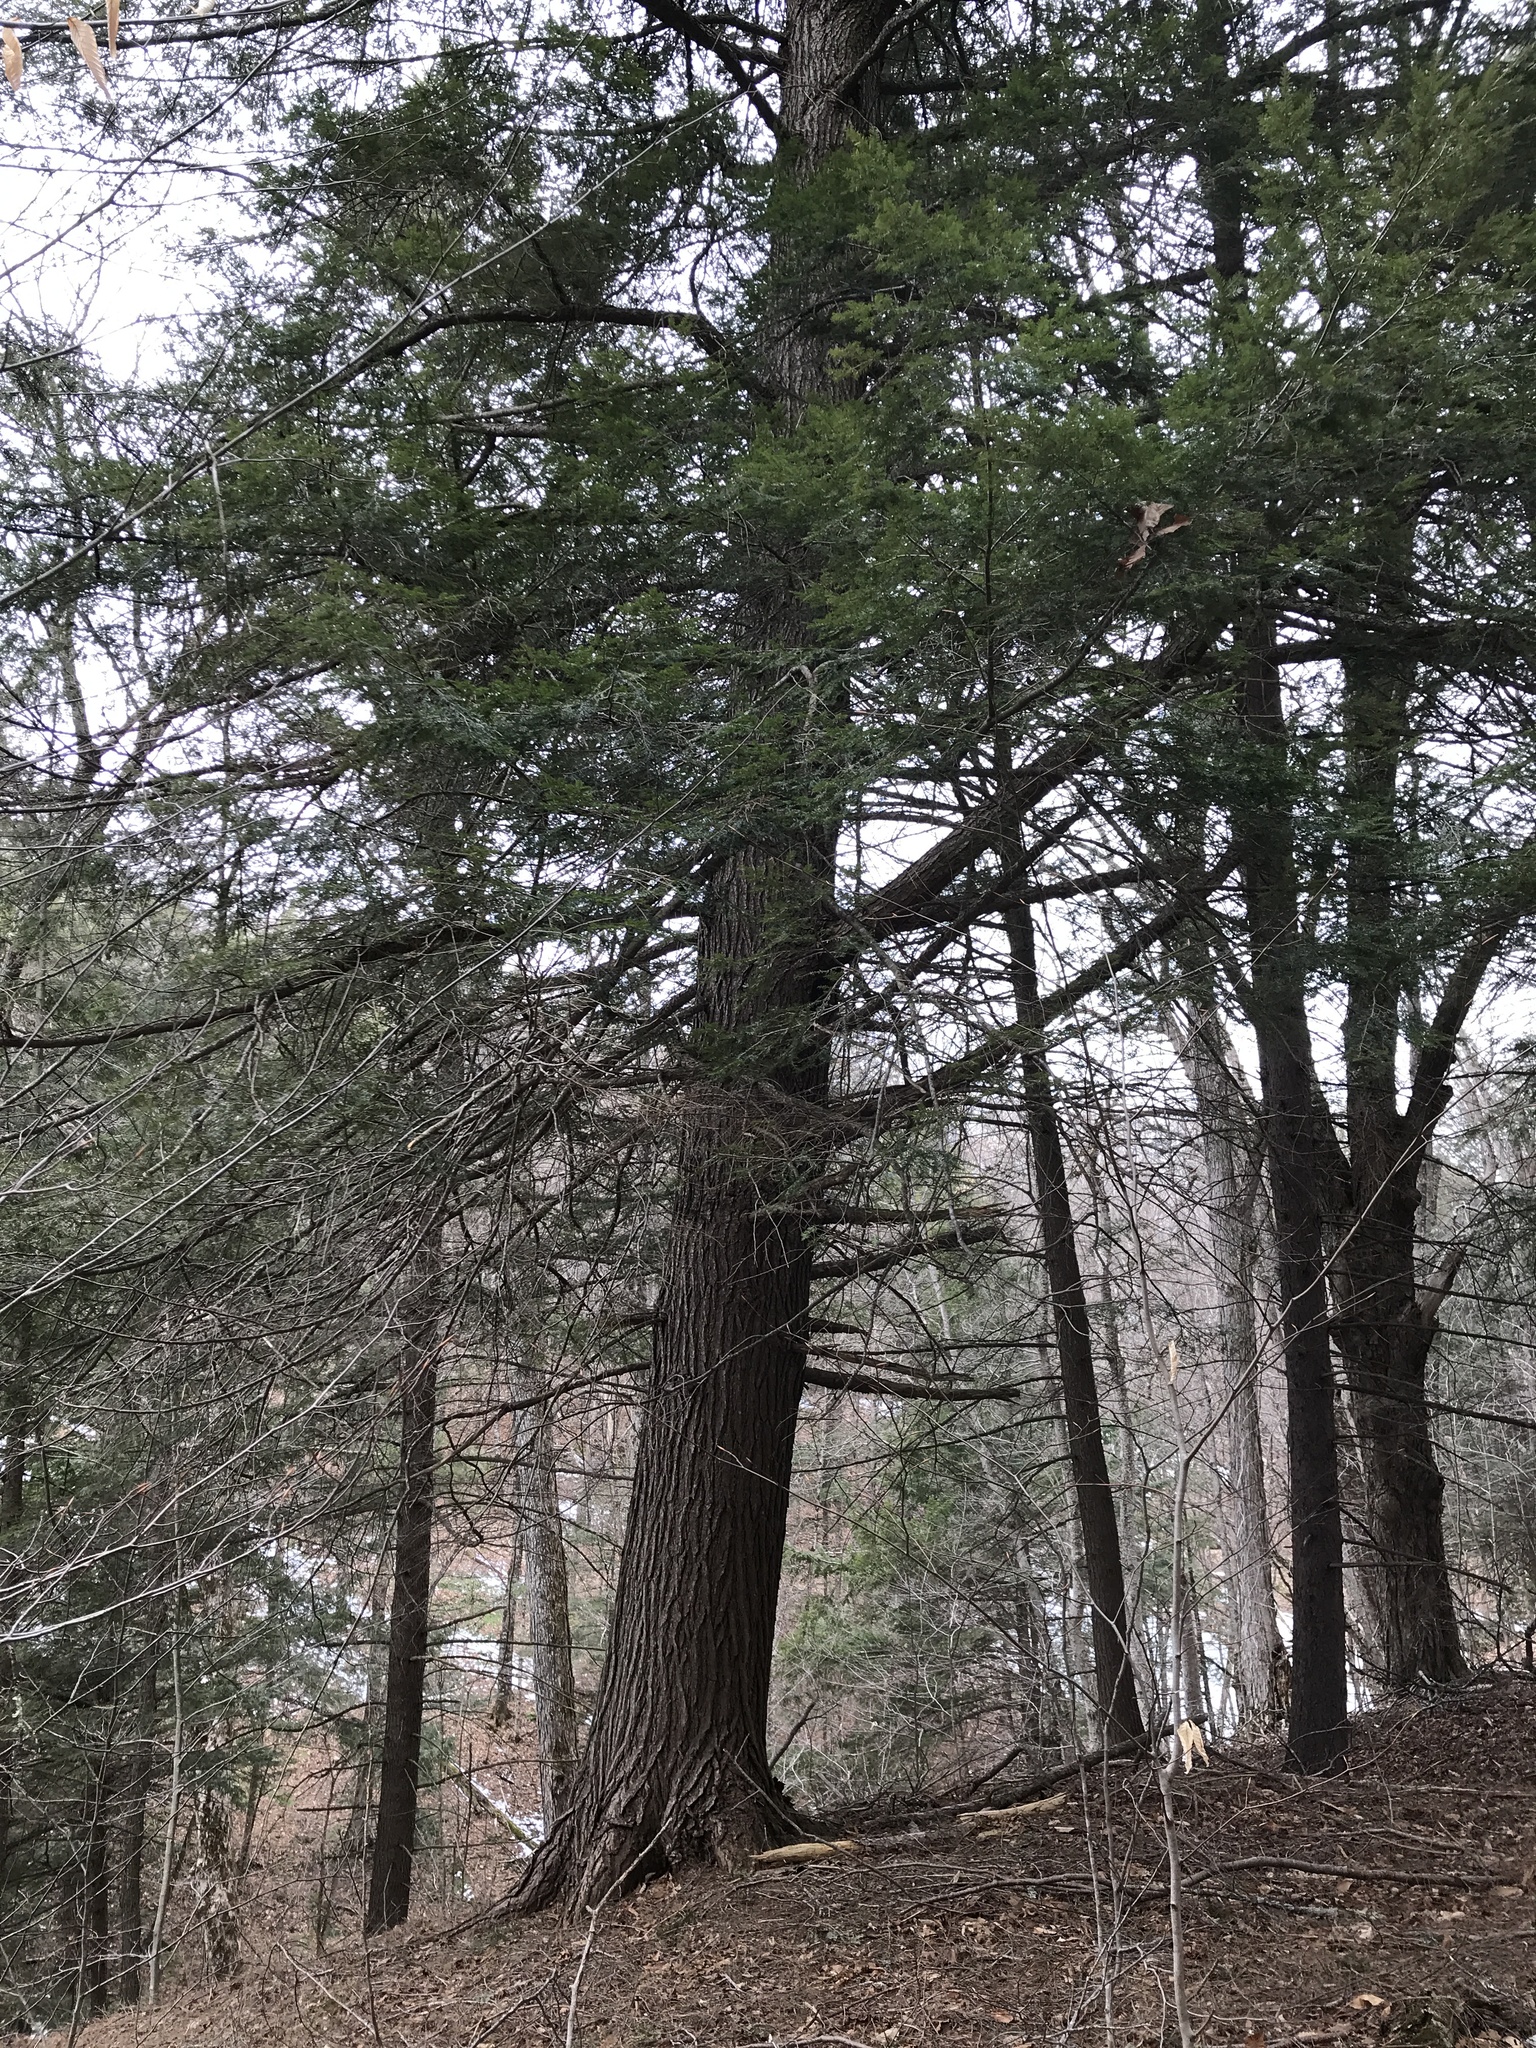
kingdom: Plantae
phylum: Tracheophyta
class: Pinopsida
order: Pinales
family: Pinaceae
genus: Tsuga
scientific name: Tsuga canadensis
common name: Eastern hemlock
